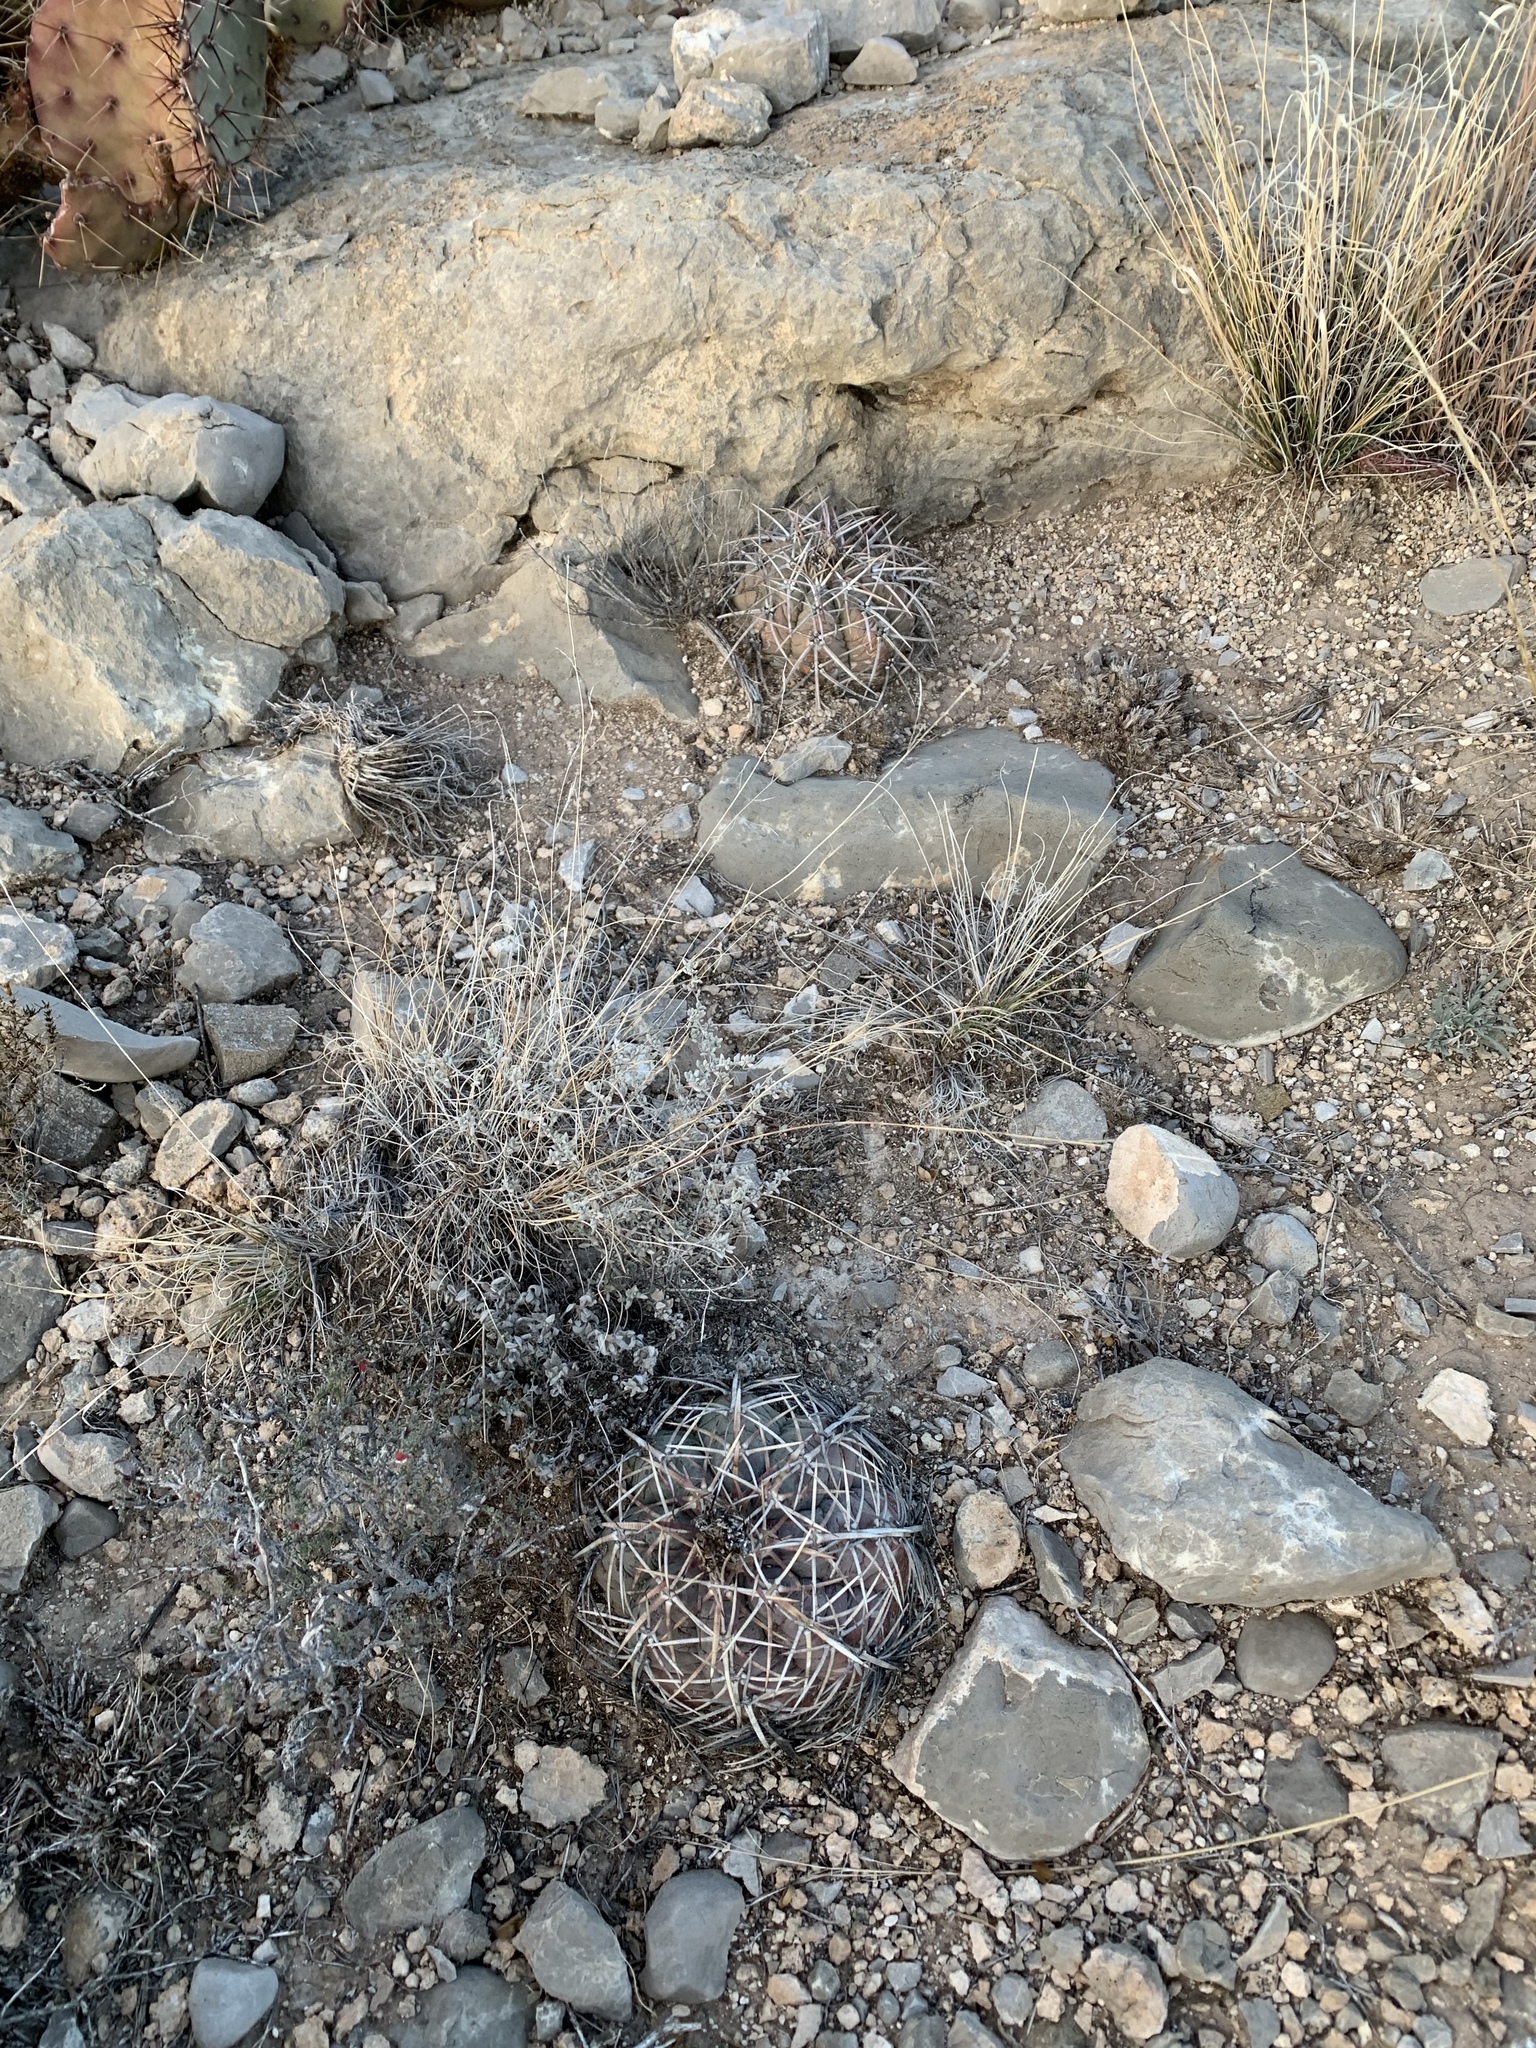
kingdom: Plantae
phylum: Tracheophyta
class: Magnoliopsida
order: Caryophyllales
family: Cactaceae
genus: Echinocactus
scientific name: Echinocactus horizonthalonius
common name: Devilshead
